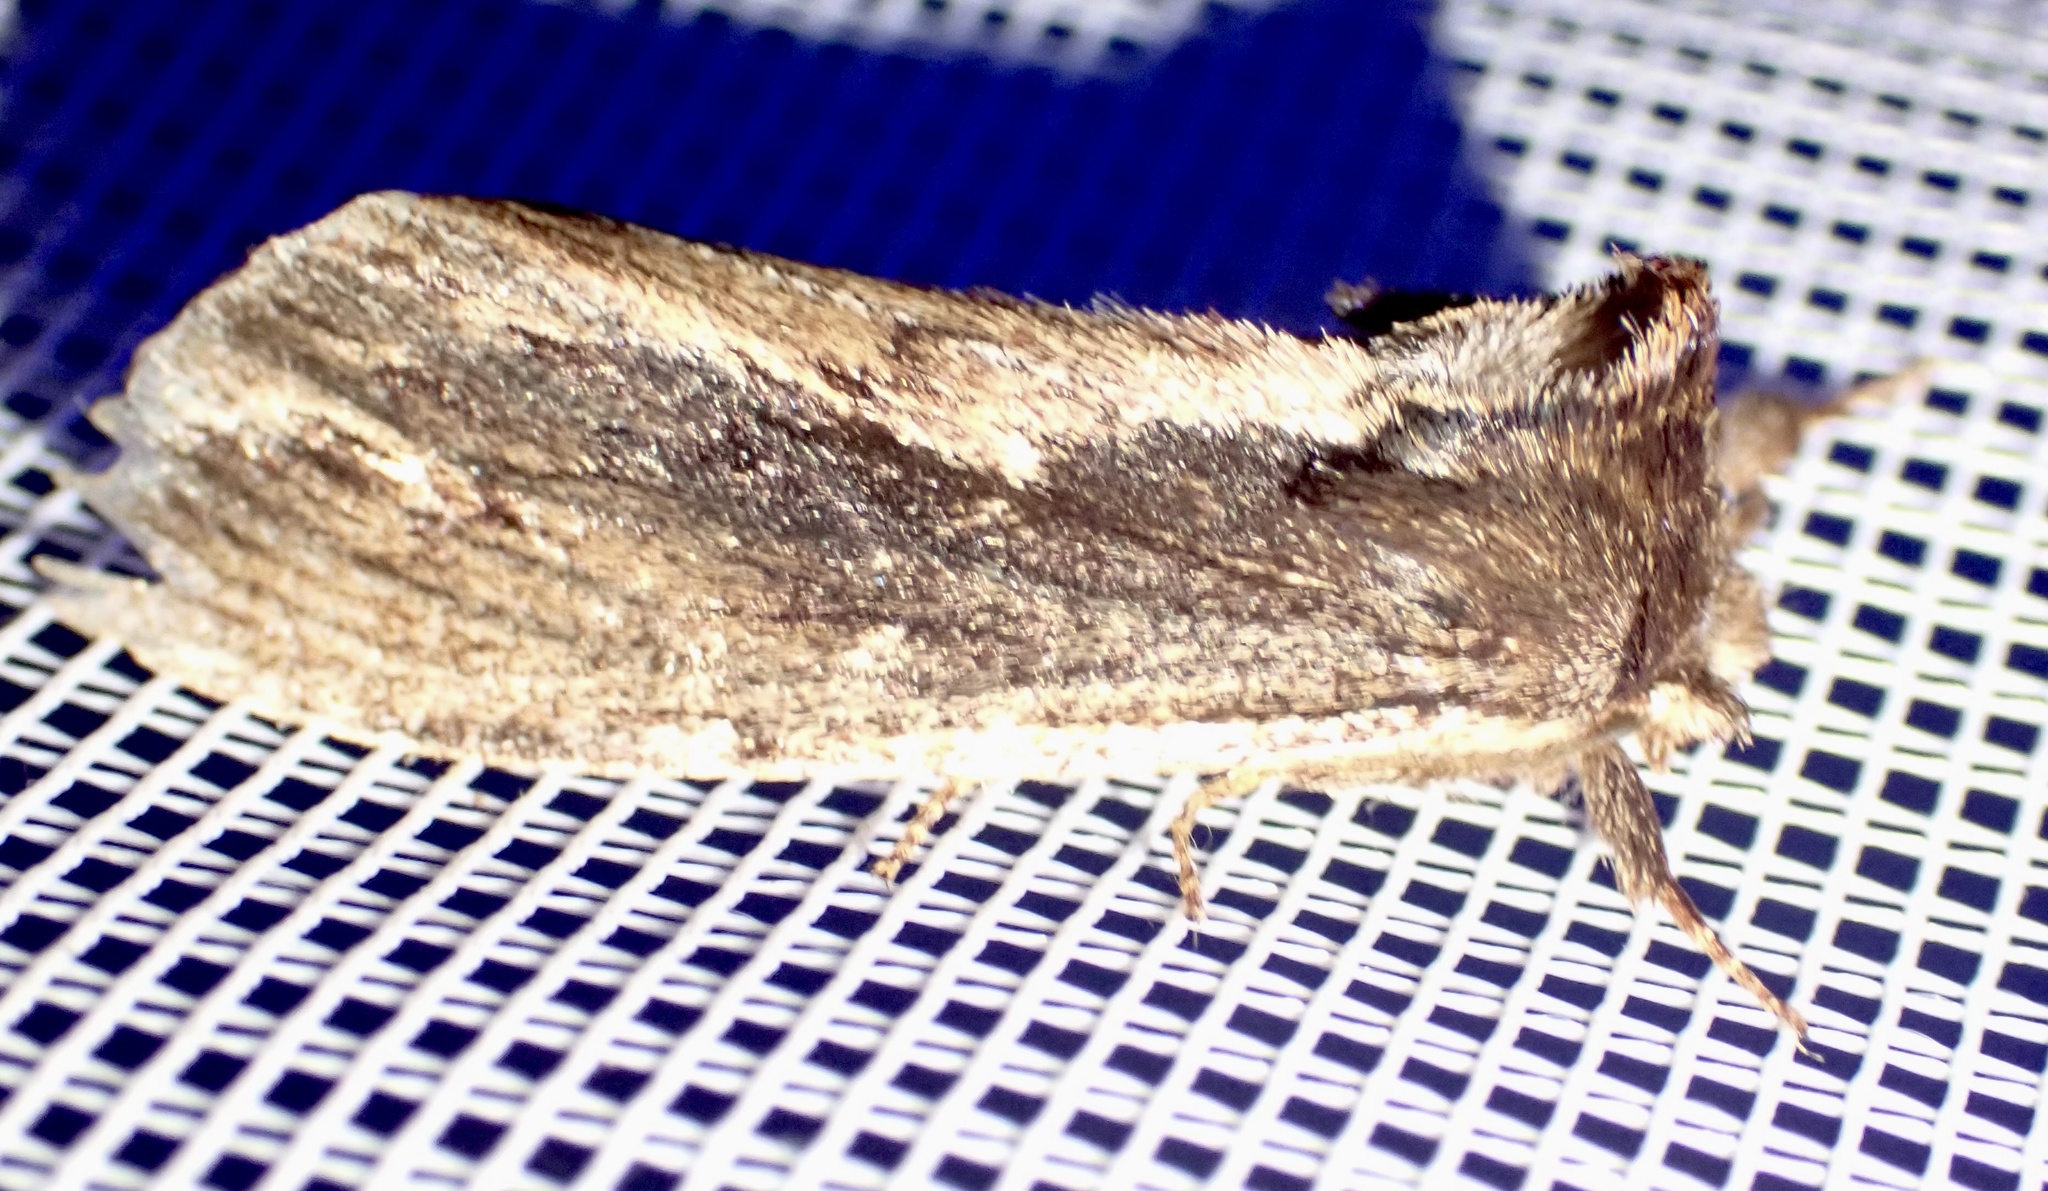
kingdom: Animalia
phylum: Arthropoda
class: Insecta
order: Lepidoptera
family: Notodontidae
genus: Hylaeora
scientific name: Hylaeora capucina
